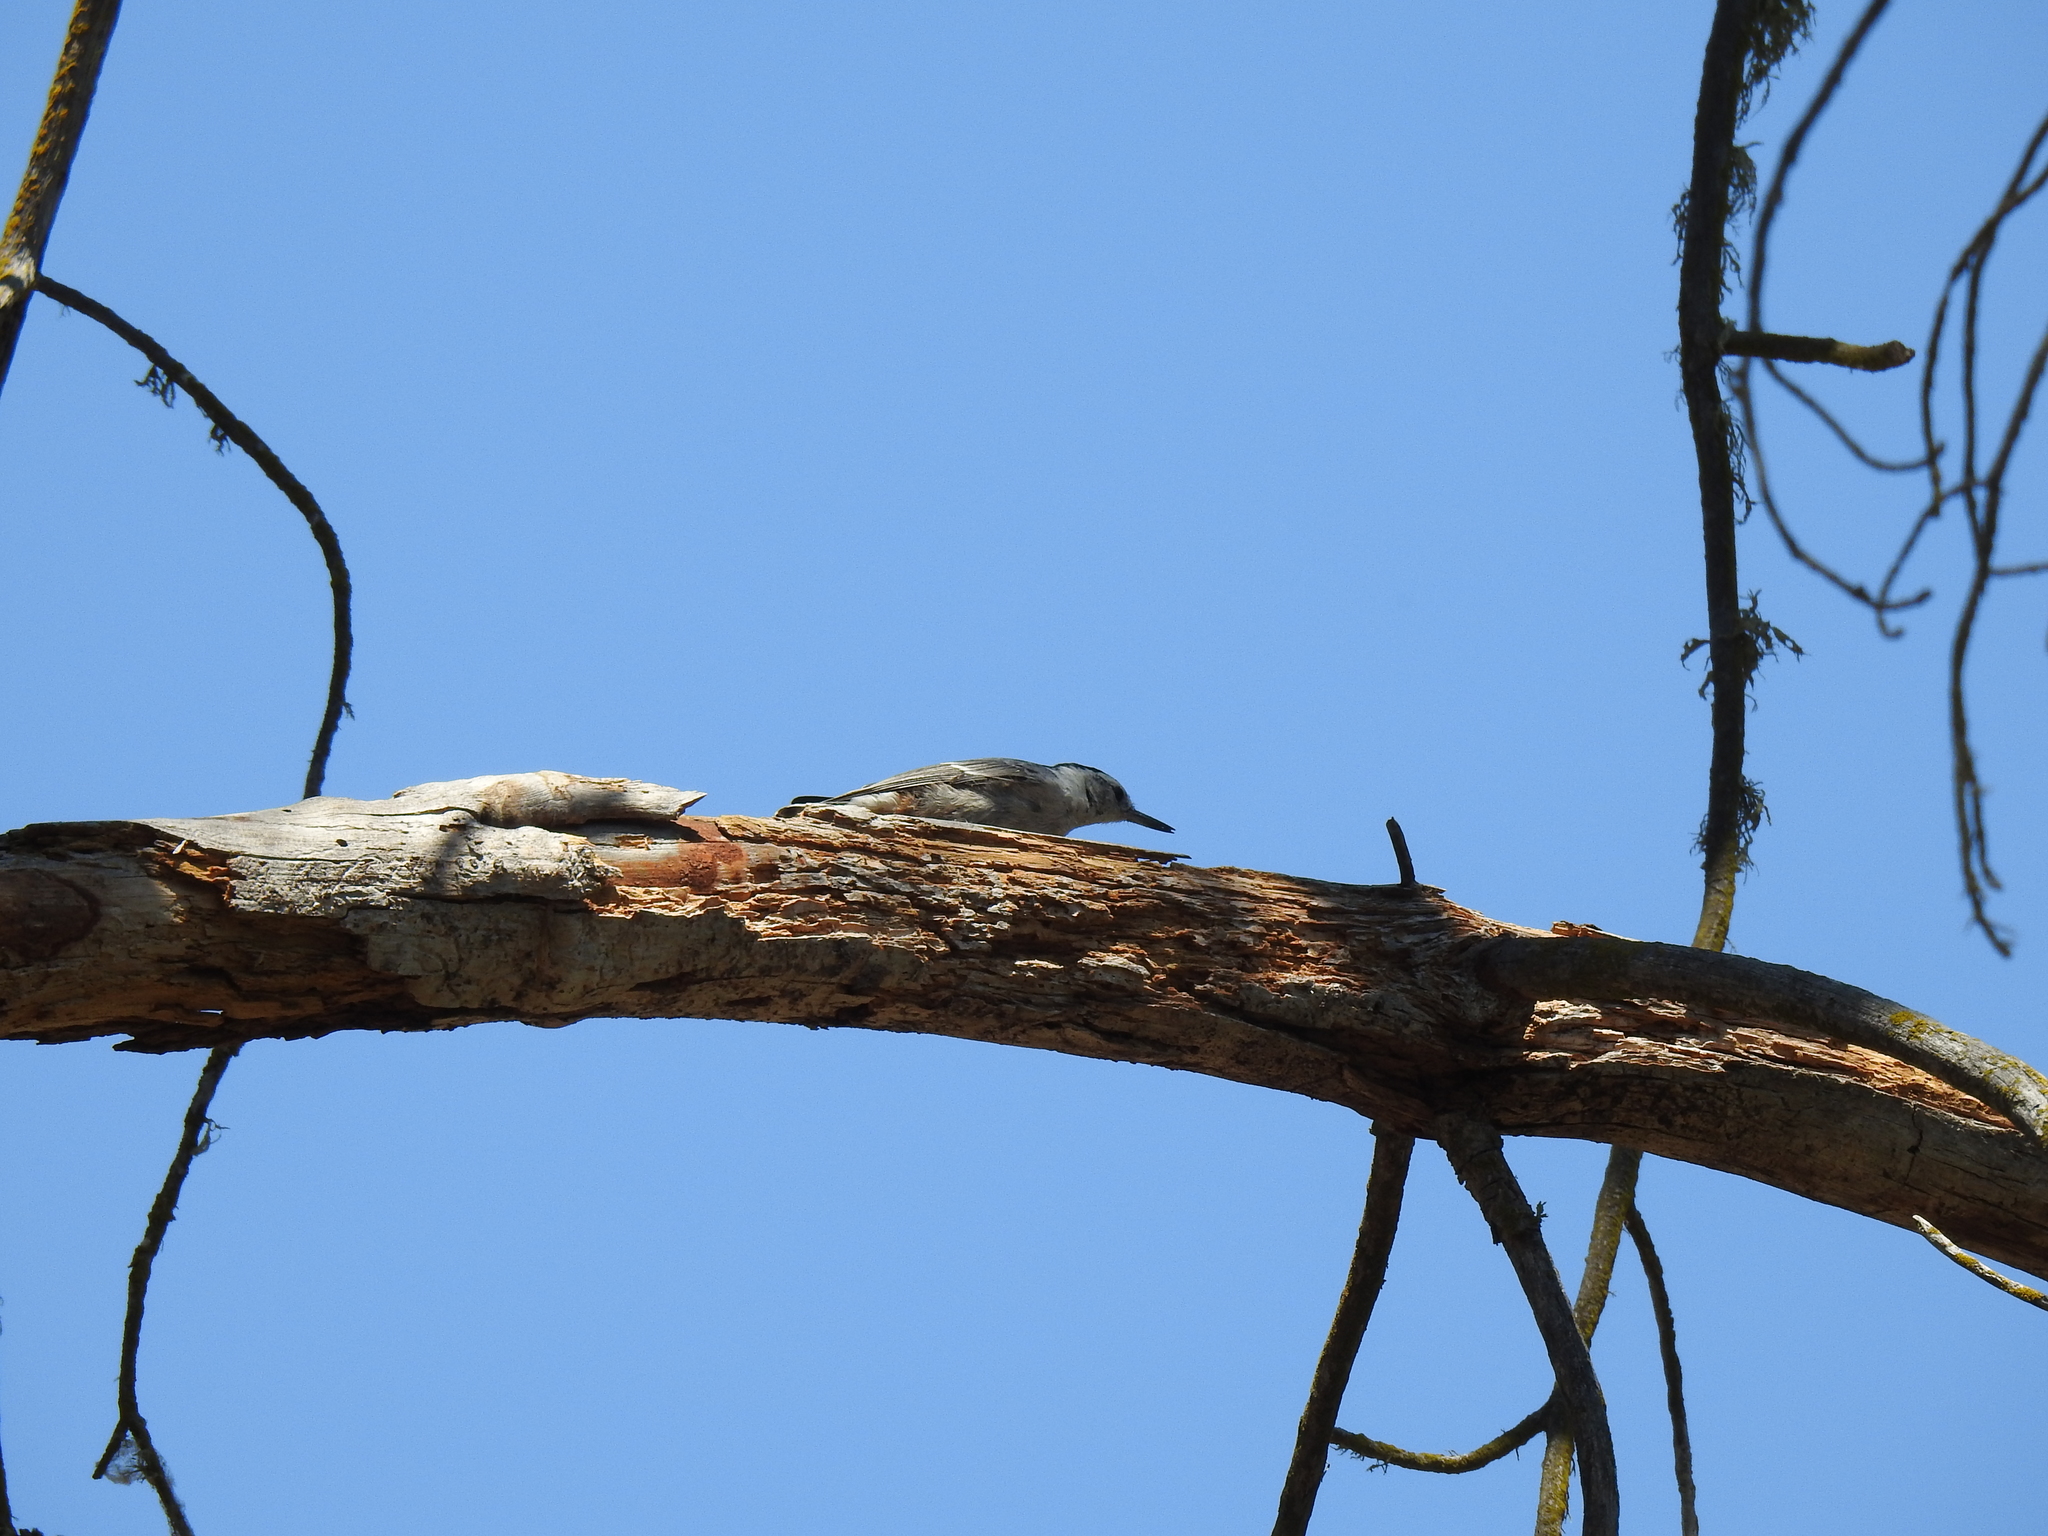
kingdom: Animalia
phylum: Chordata
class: Aves
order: Passeriformes
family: Sittidae
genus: Sitta
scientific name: Sitta carolinensis
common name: White-breasted nuthatch
